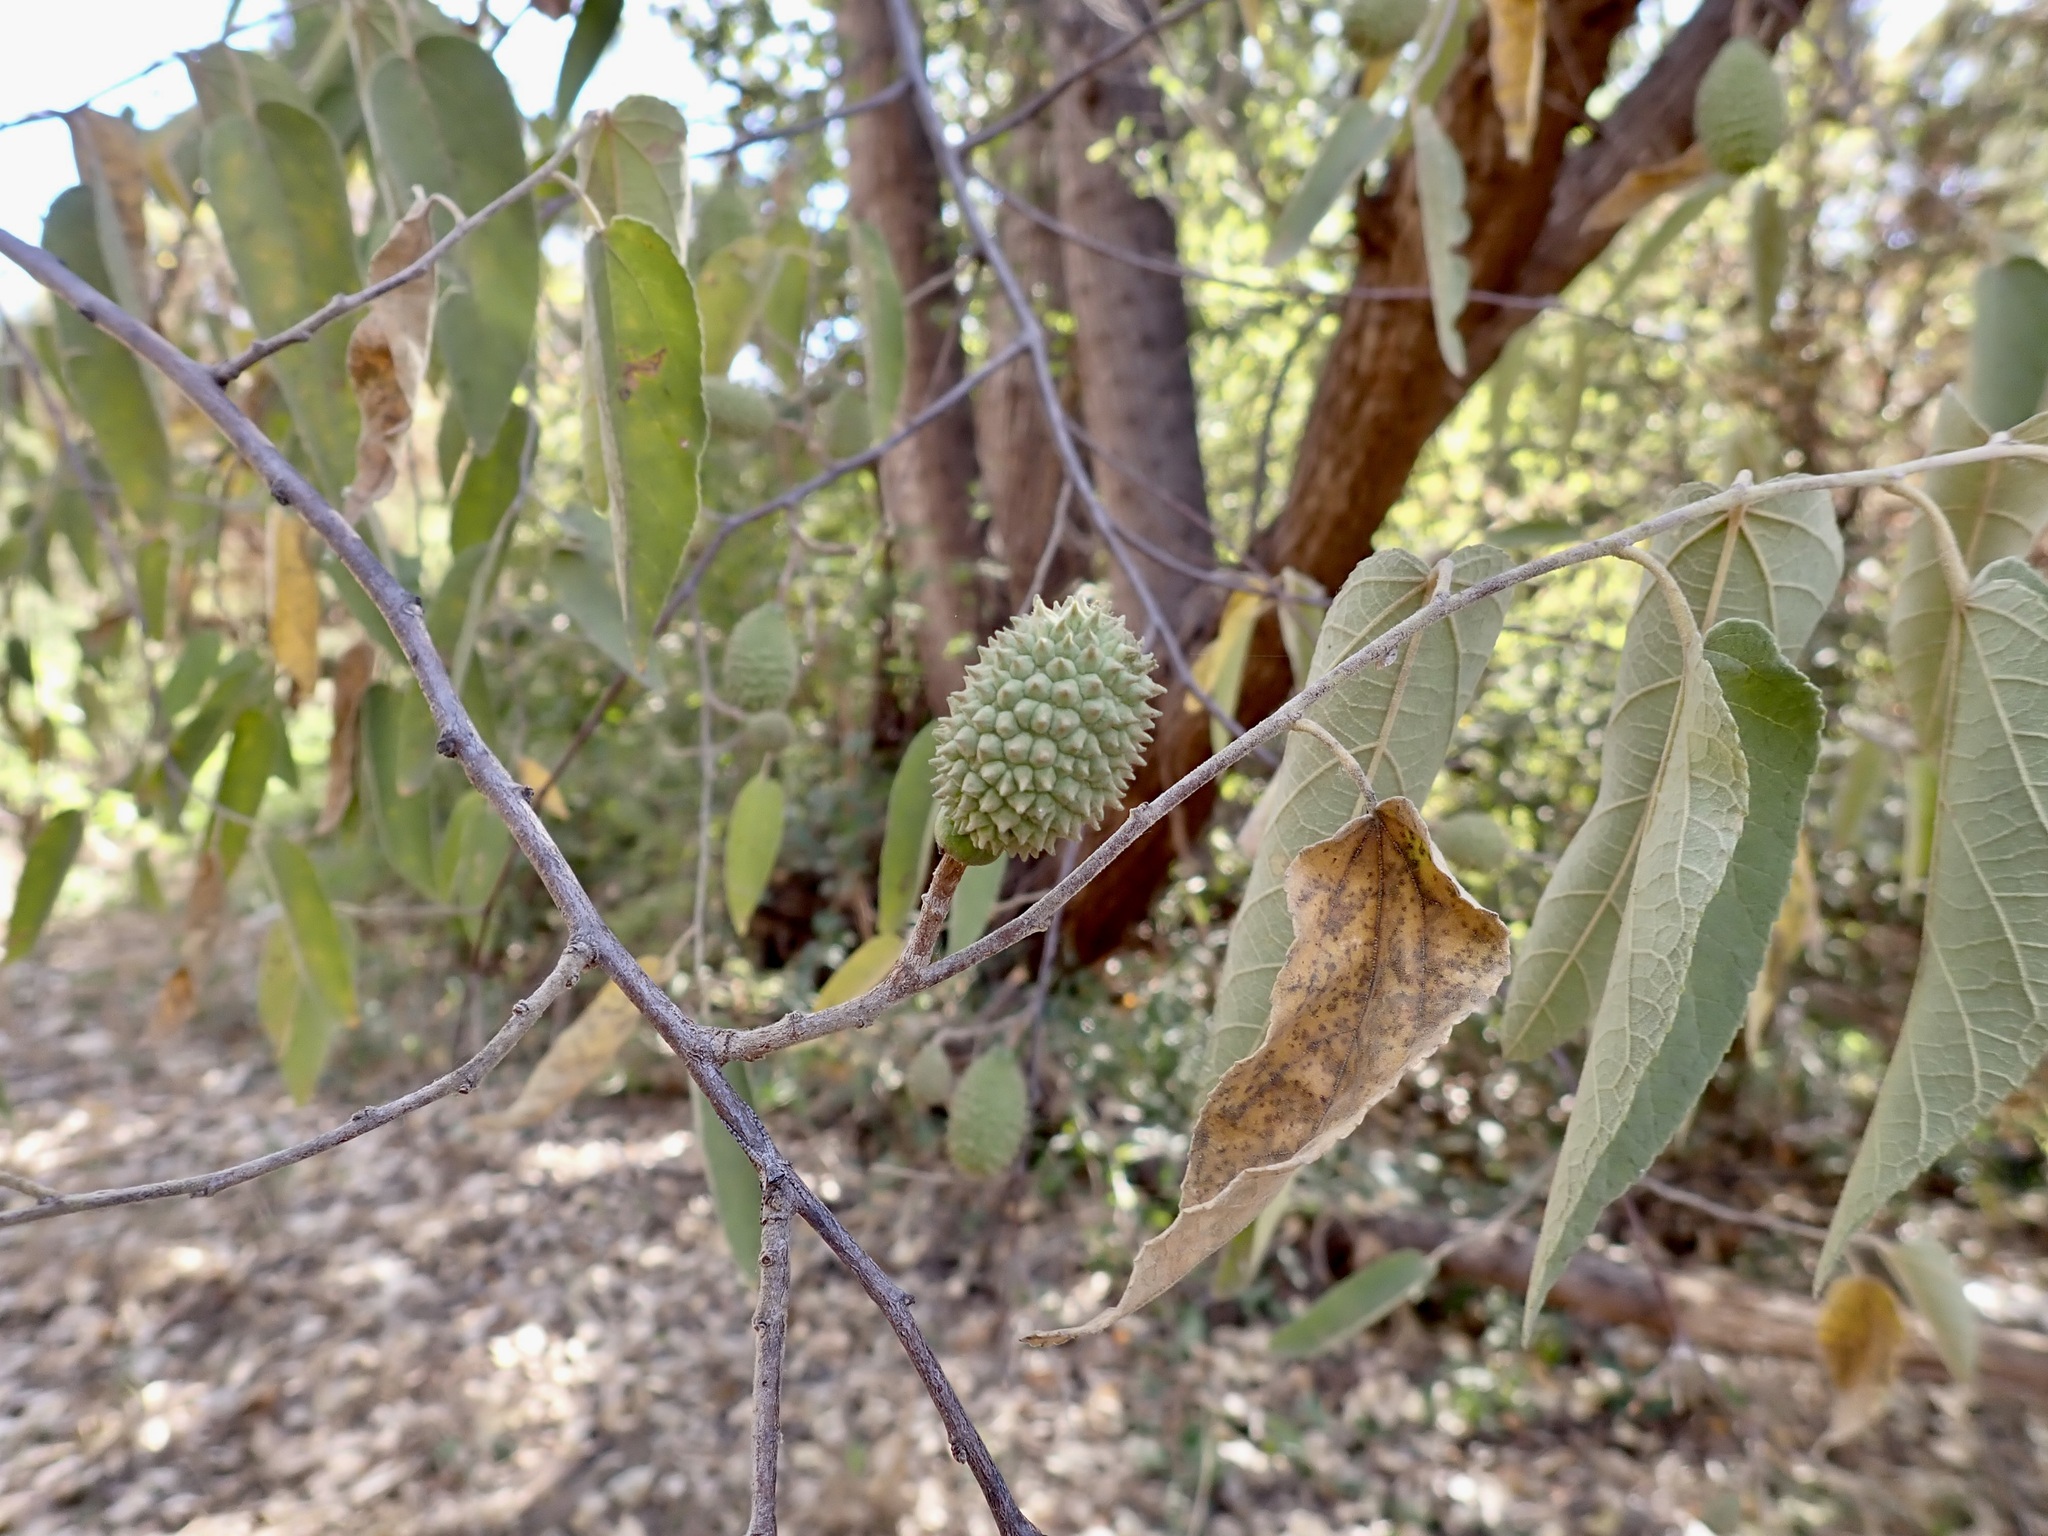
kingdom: Plantae
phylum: Tracheophyta
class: Magnoliopsida
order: Malvales
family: Malvaceae
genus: Guazuma
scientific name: Guazuma ulmifolia
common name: Bastard-cedar
